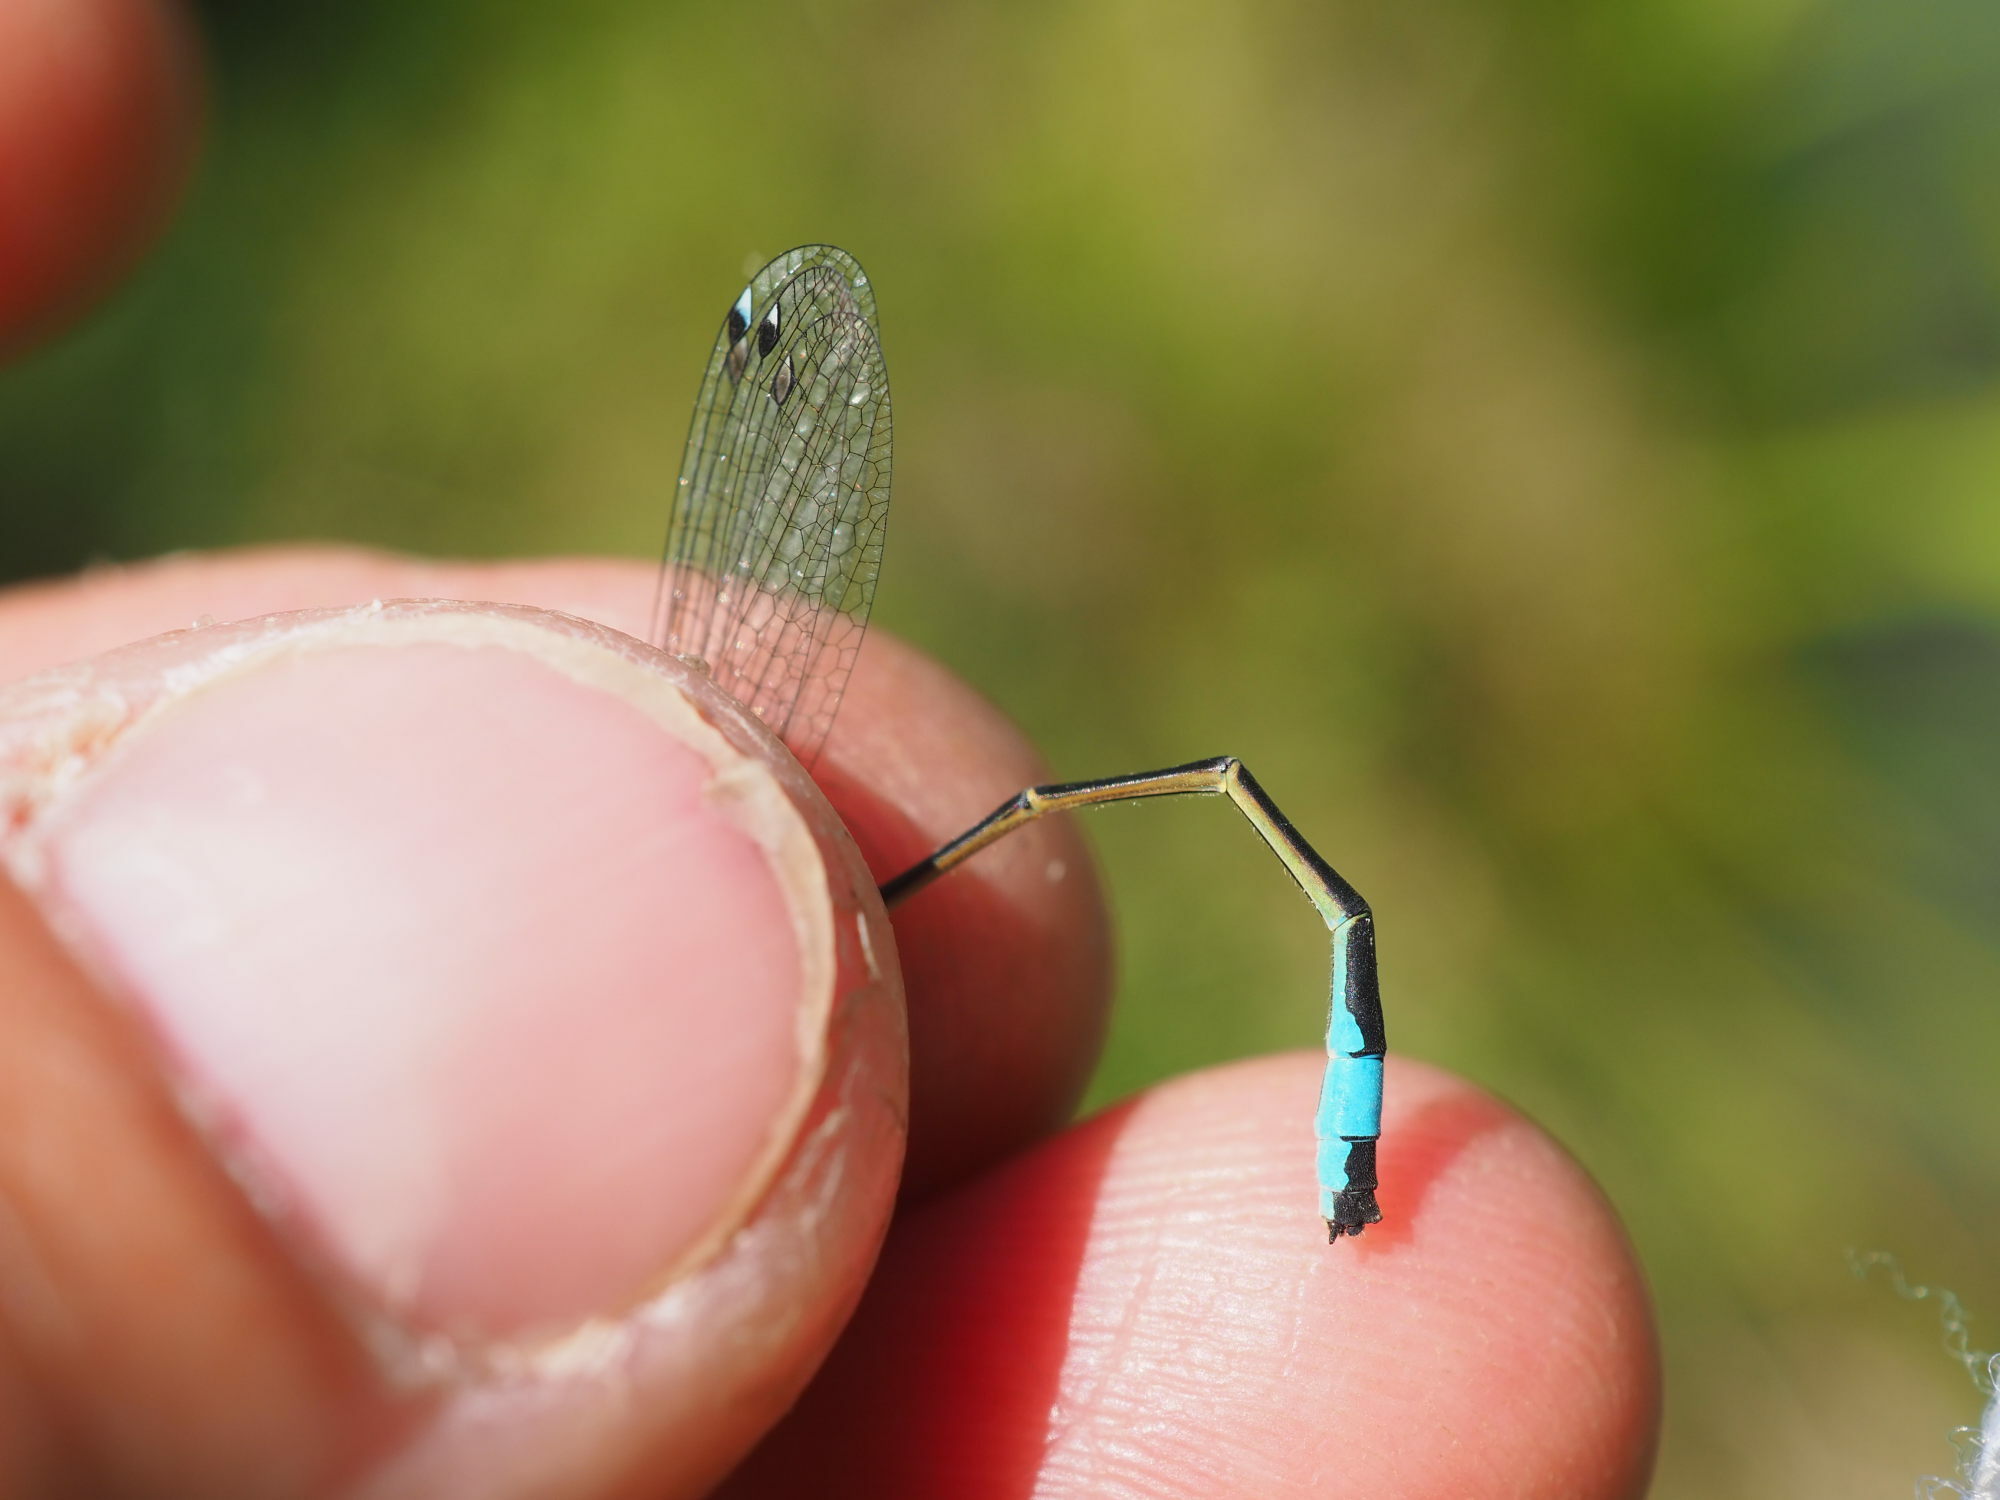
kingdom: Animalia
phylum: Arthropoda
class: Insecta
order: Odonata
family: Coenagrionidae
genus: Ischnura
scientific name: Ischnura elegans
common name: Blue-tailed damselfly
